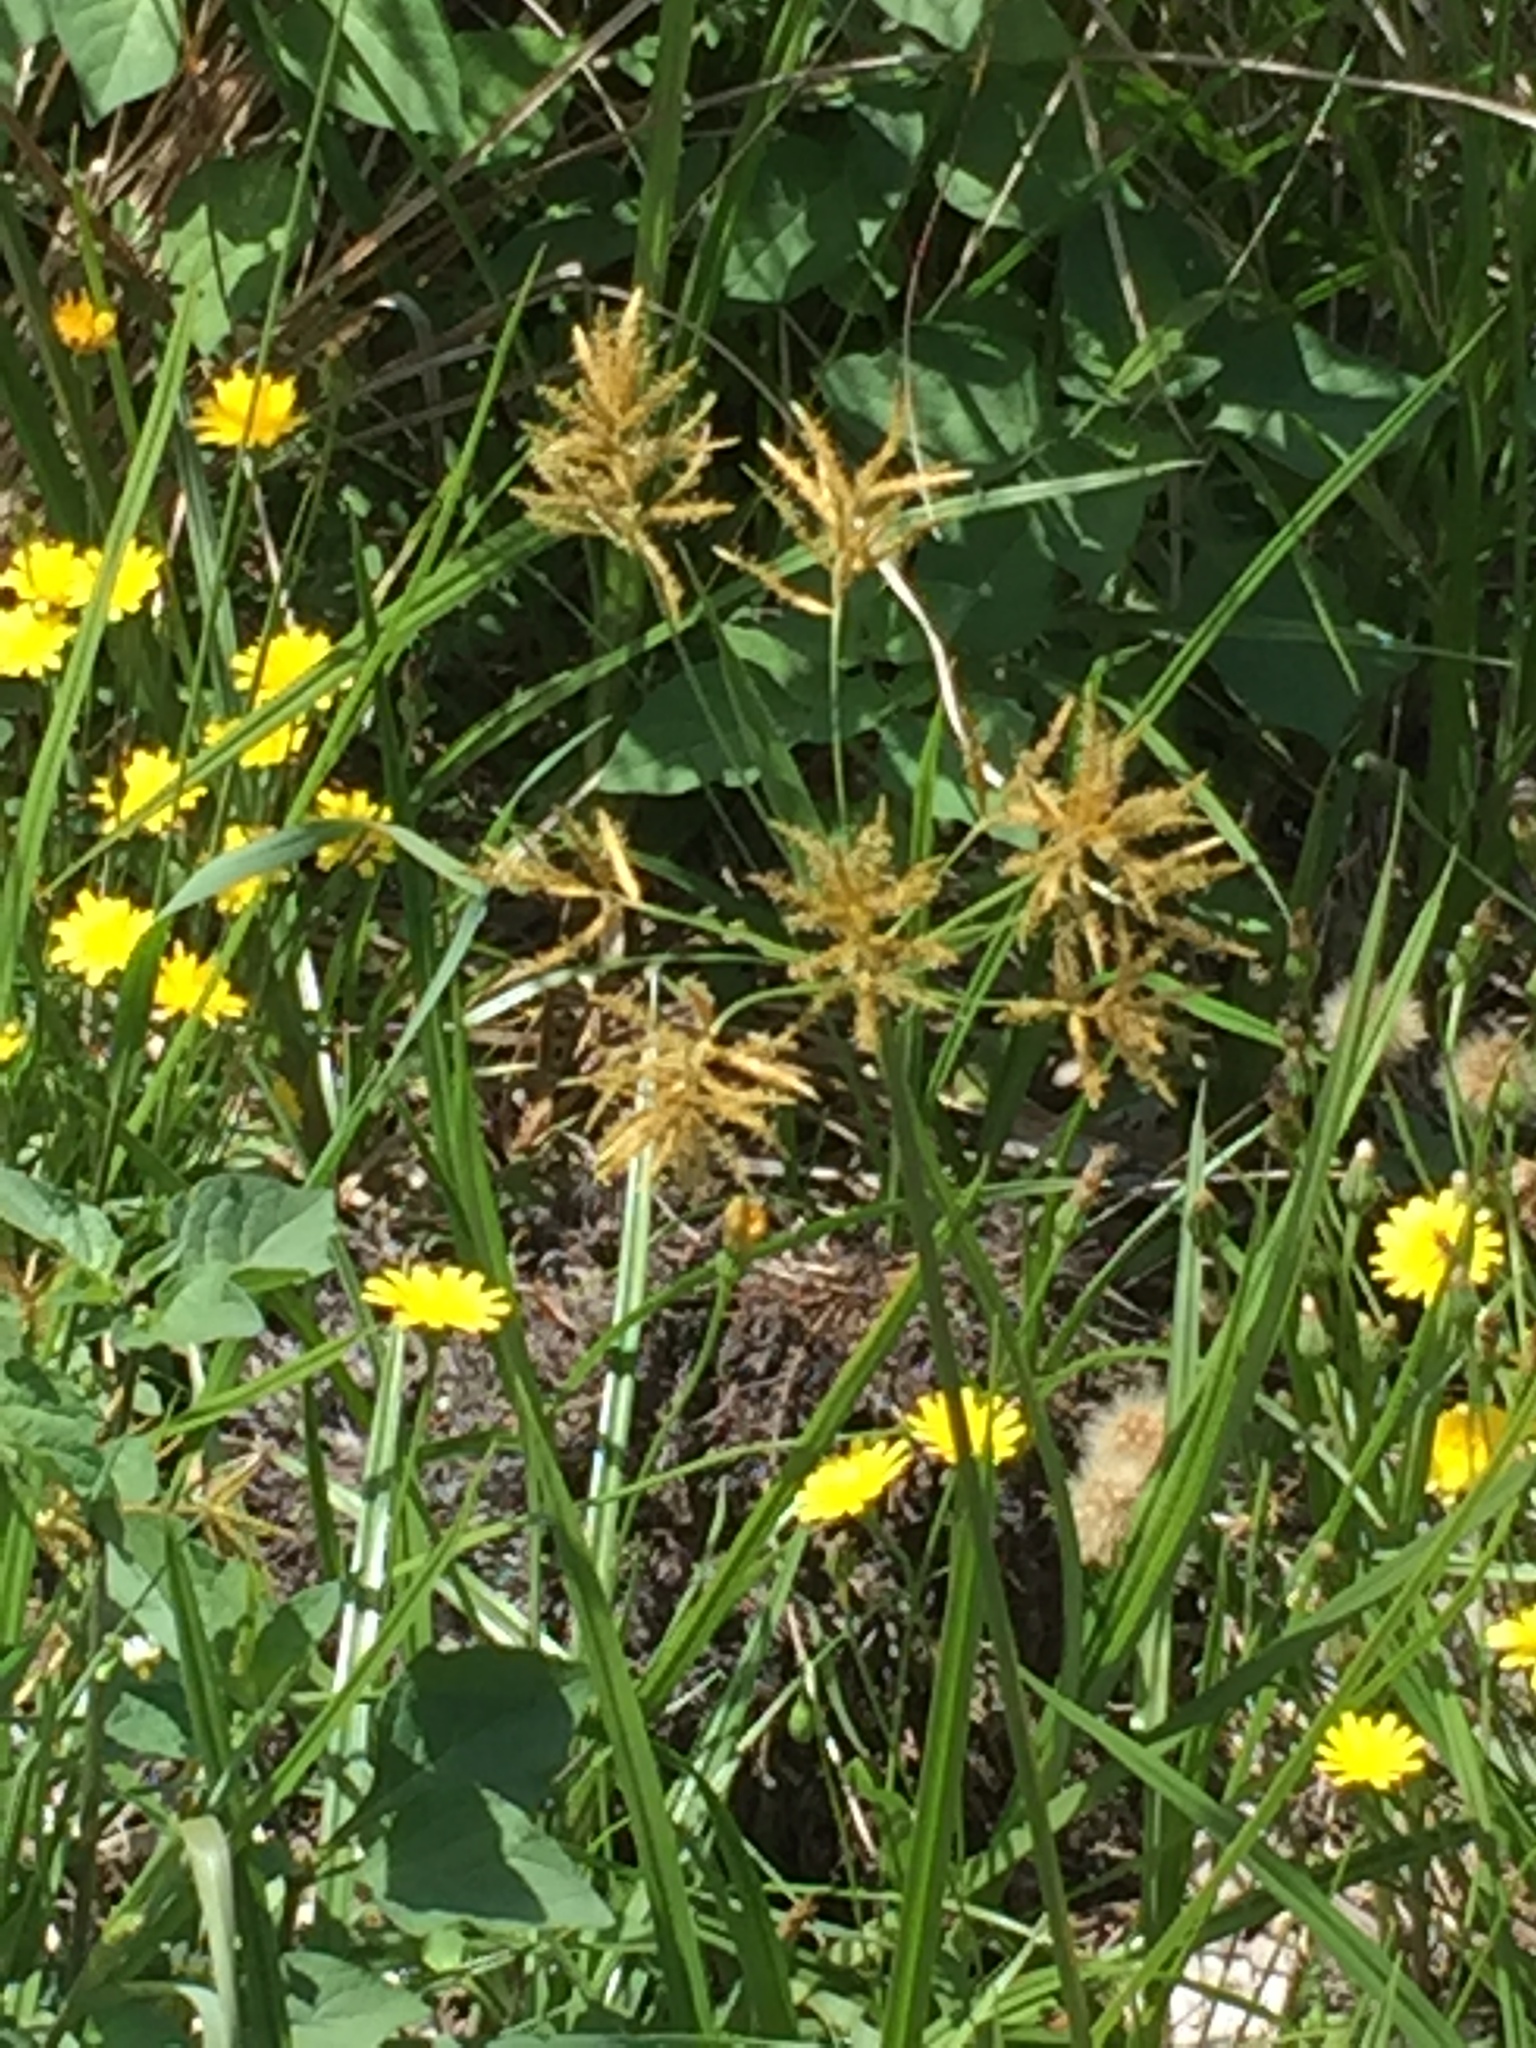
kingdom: Plantae
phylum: Tracheophyta
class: Liliopsida
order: Poales
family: Cyperaceae
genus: Cyperus
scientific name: Cyperus esculentus
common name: Yellow nutsedge
